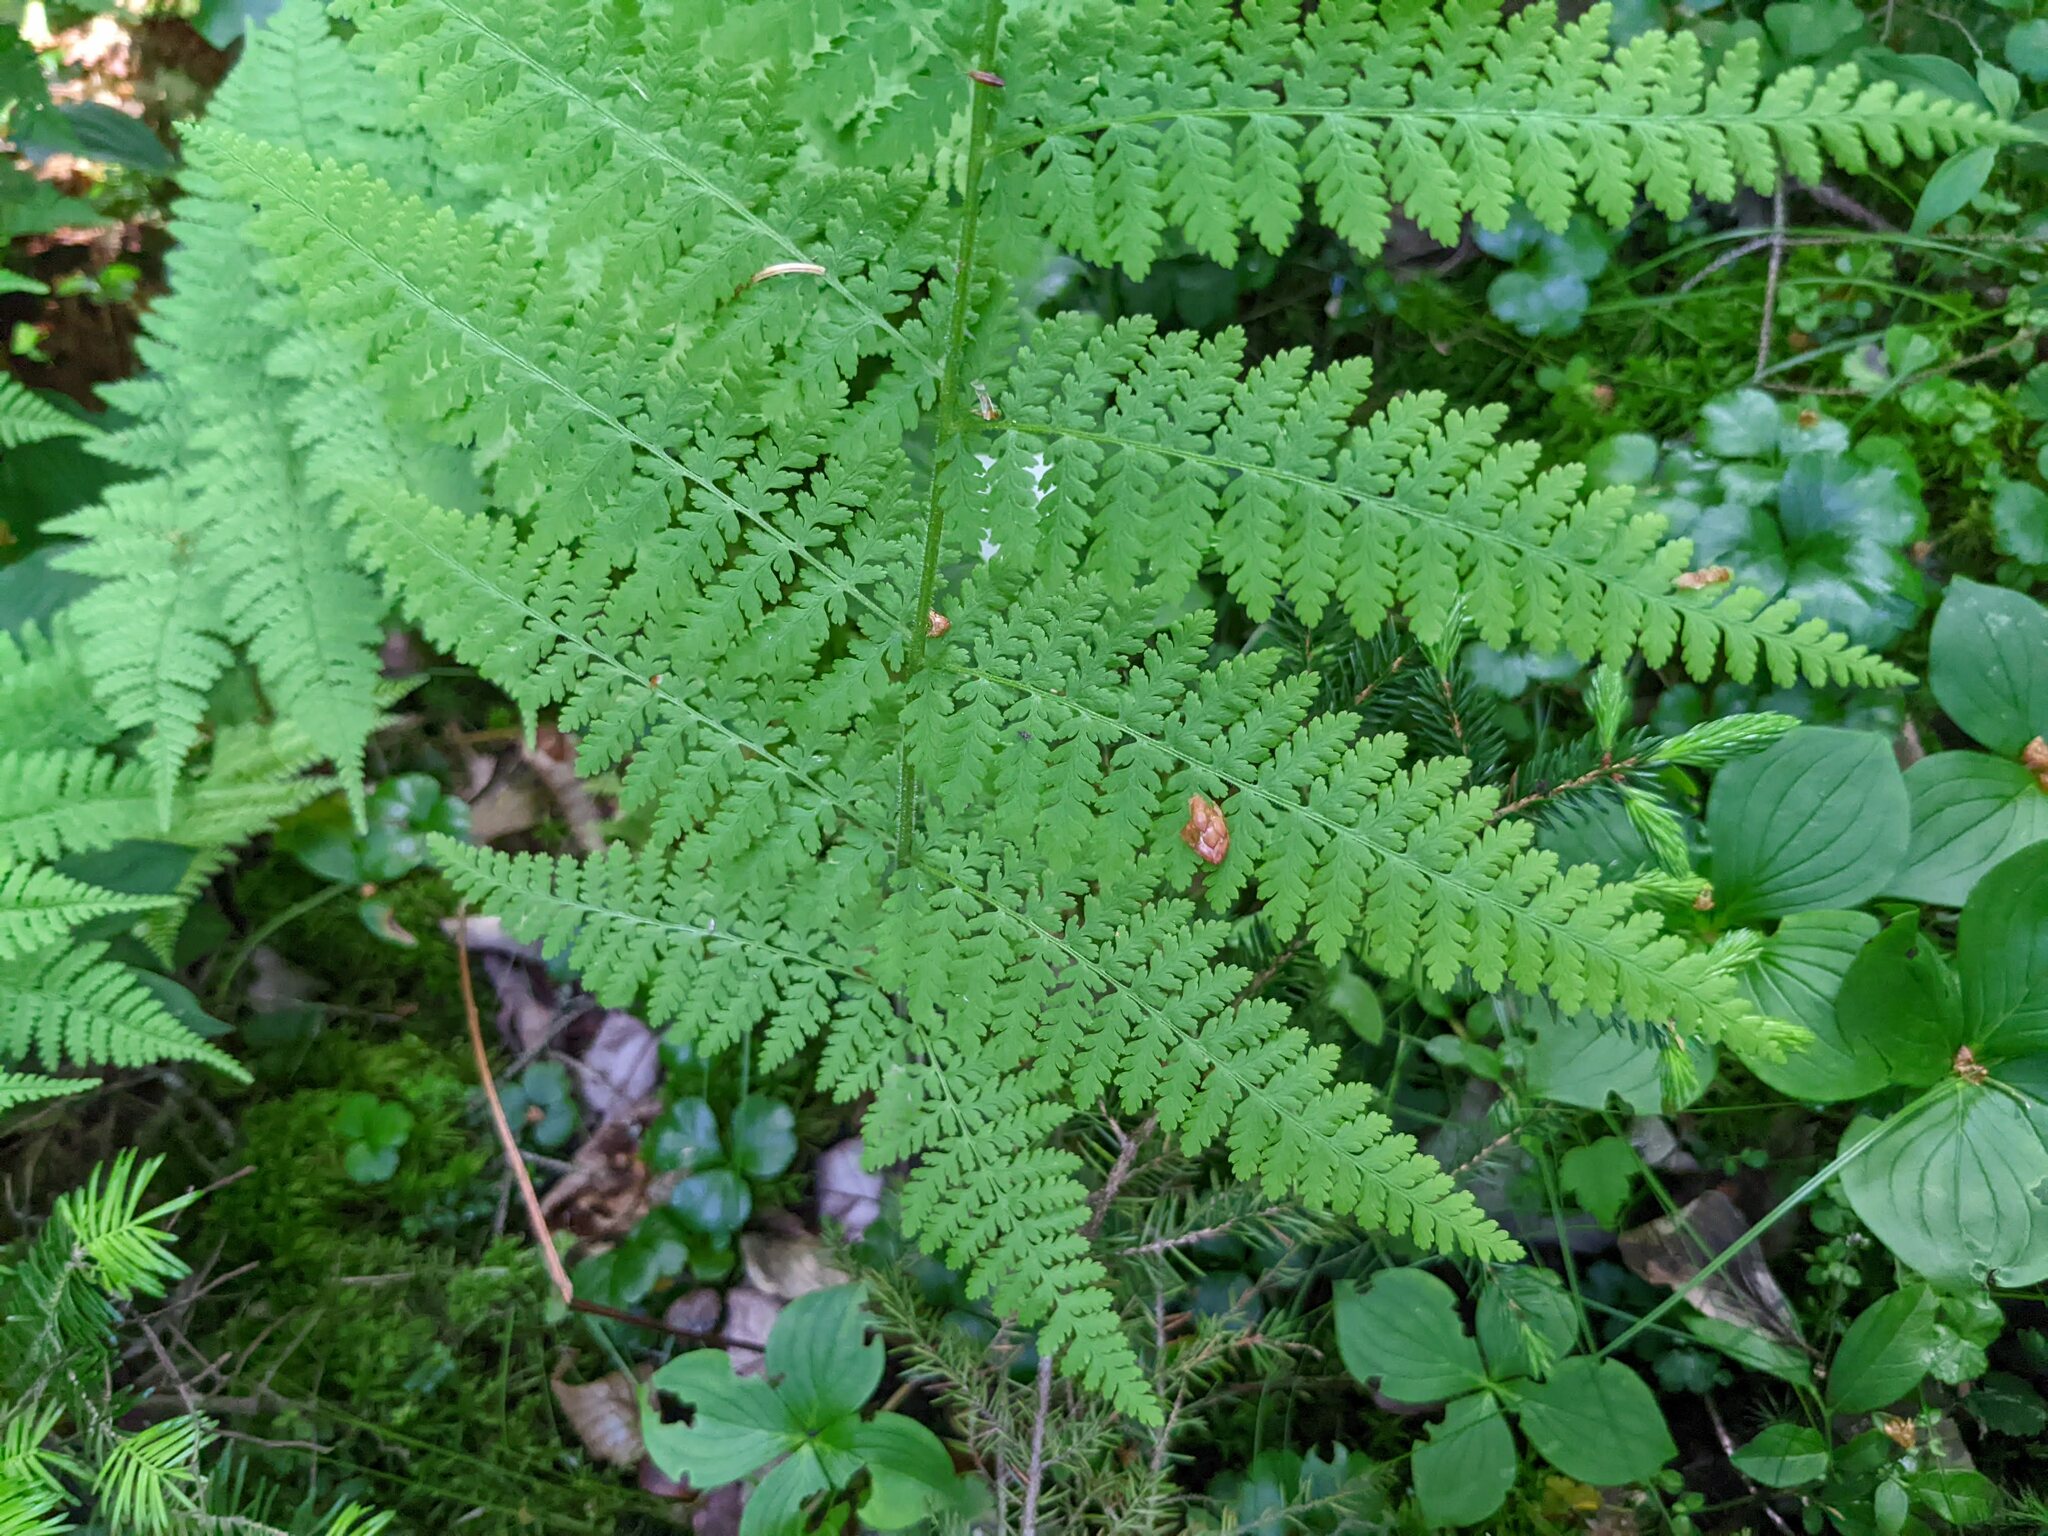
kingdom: Plantae
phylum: Tracheophyta
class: Polypodiopsida
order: Polypodiales
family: Dennstaedtiaceae
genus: Sitobolium
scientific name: Sitobolium punctilobum
